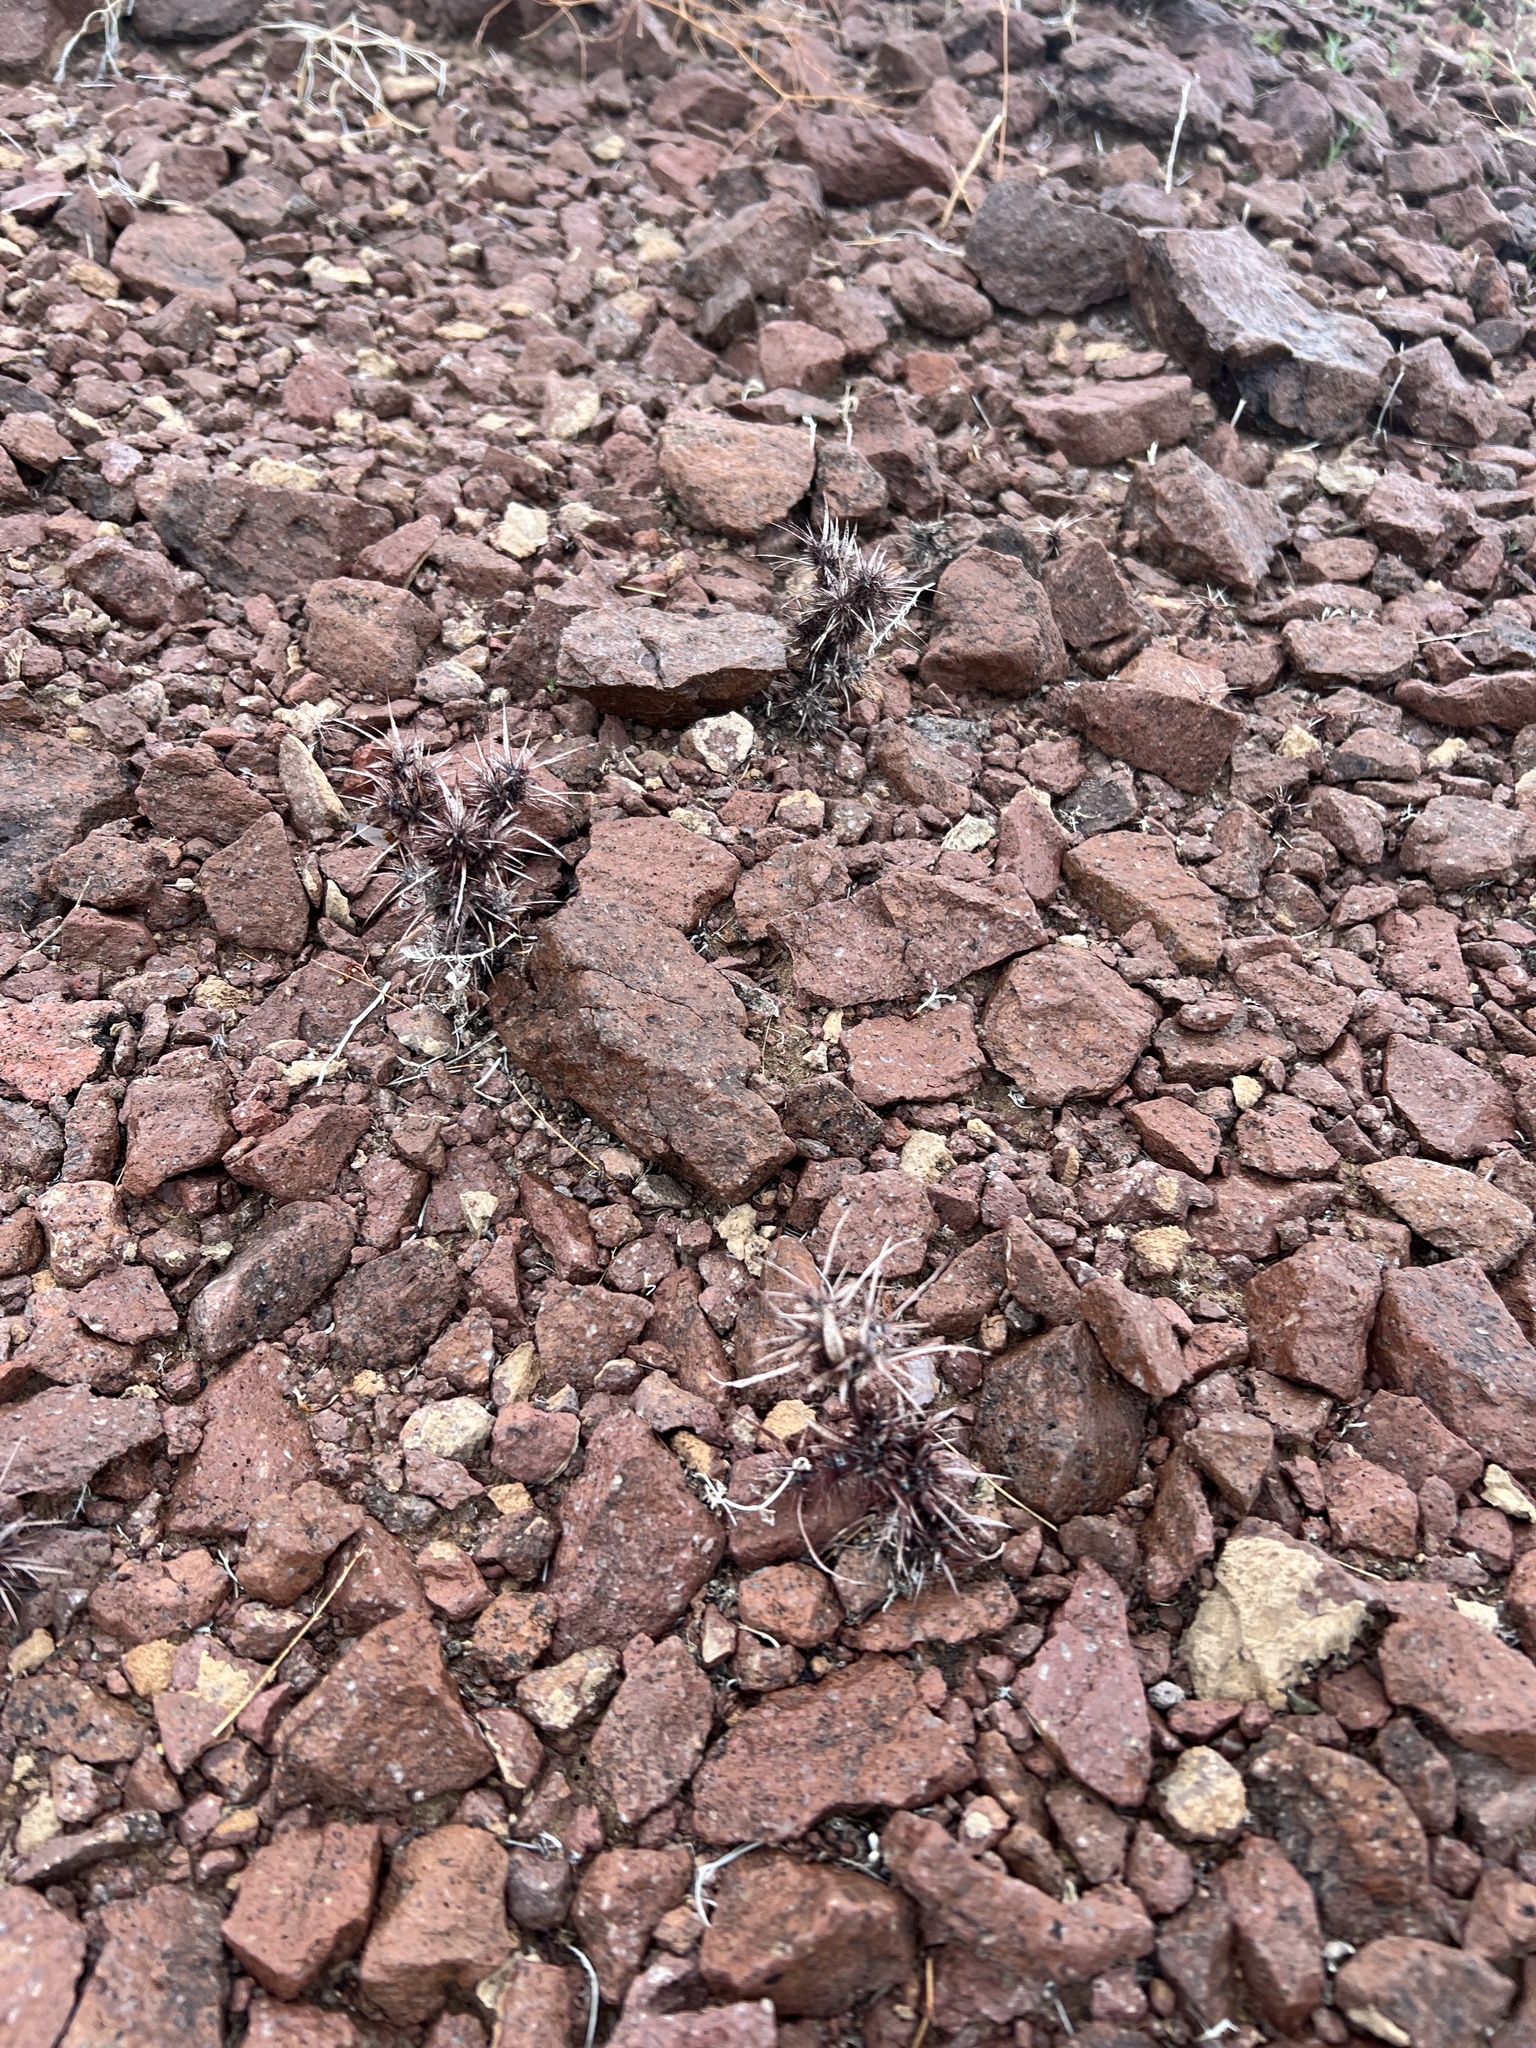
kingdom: Plantae
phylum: Tracheophyta
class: Magnoliopsida
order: Caryophyllales
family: Polygonaceae
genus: Chorizanthe
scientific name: Chorizanthe rigida
